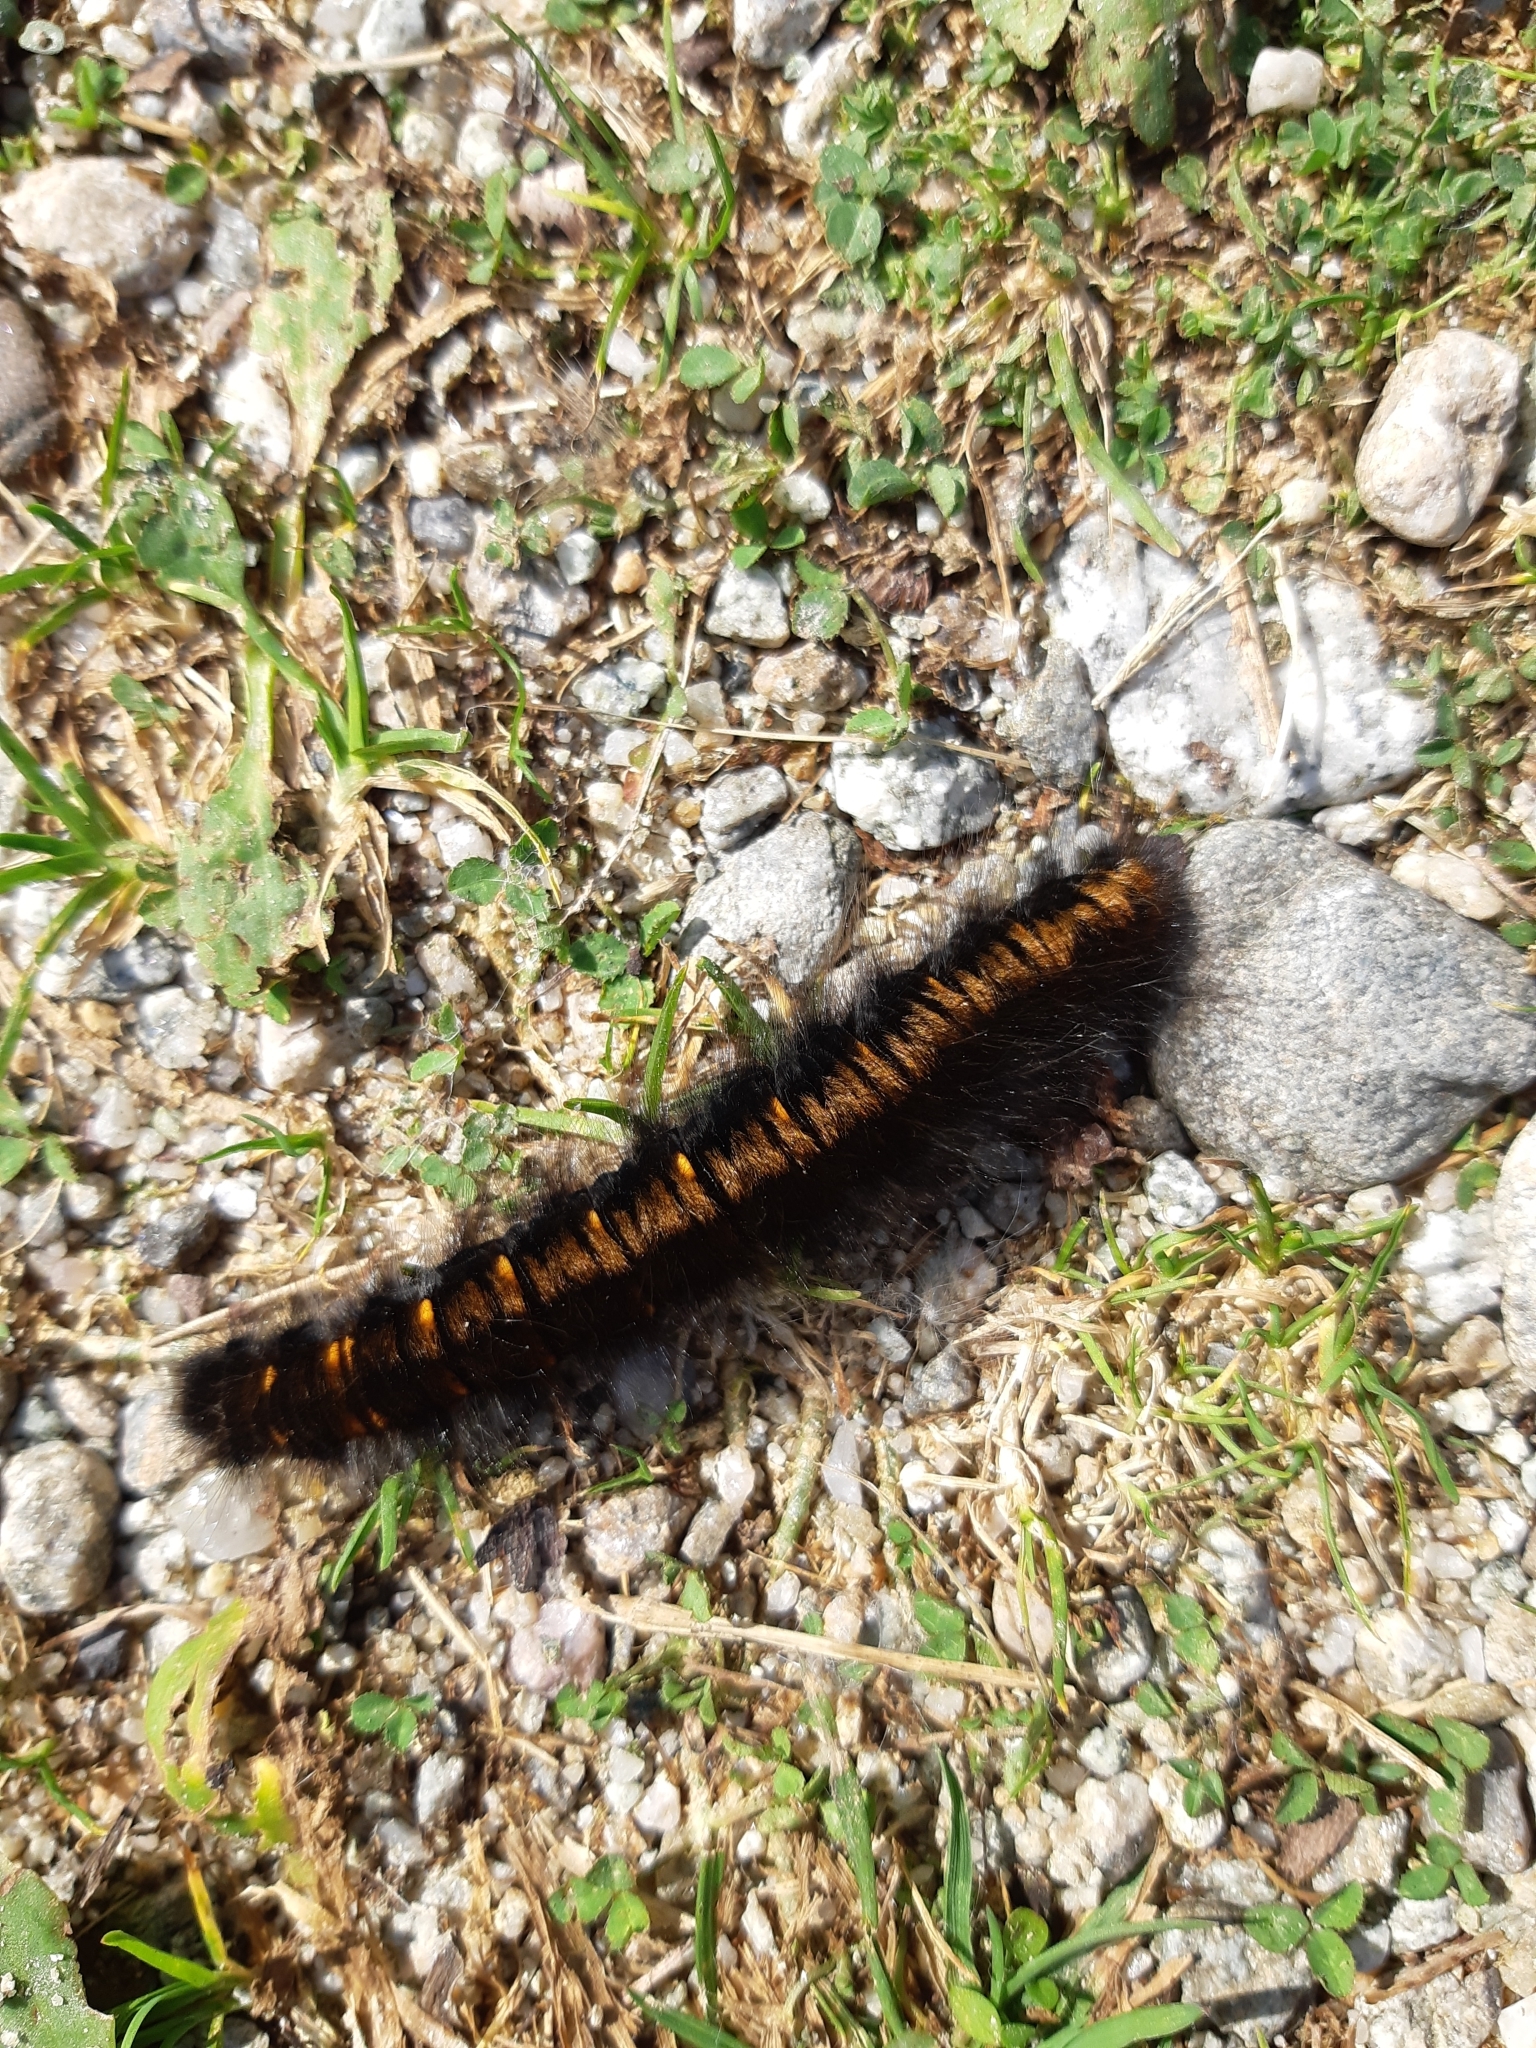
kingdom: Animalia
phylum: Arthropoda
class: Insecta
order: Lepidoptera
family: Lasiocampidae
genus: Macrothylacia
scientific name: Macrothylacia rubi
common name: Fox moth
